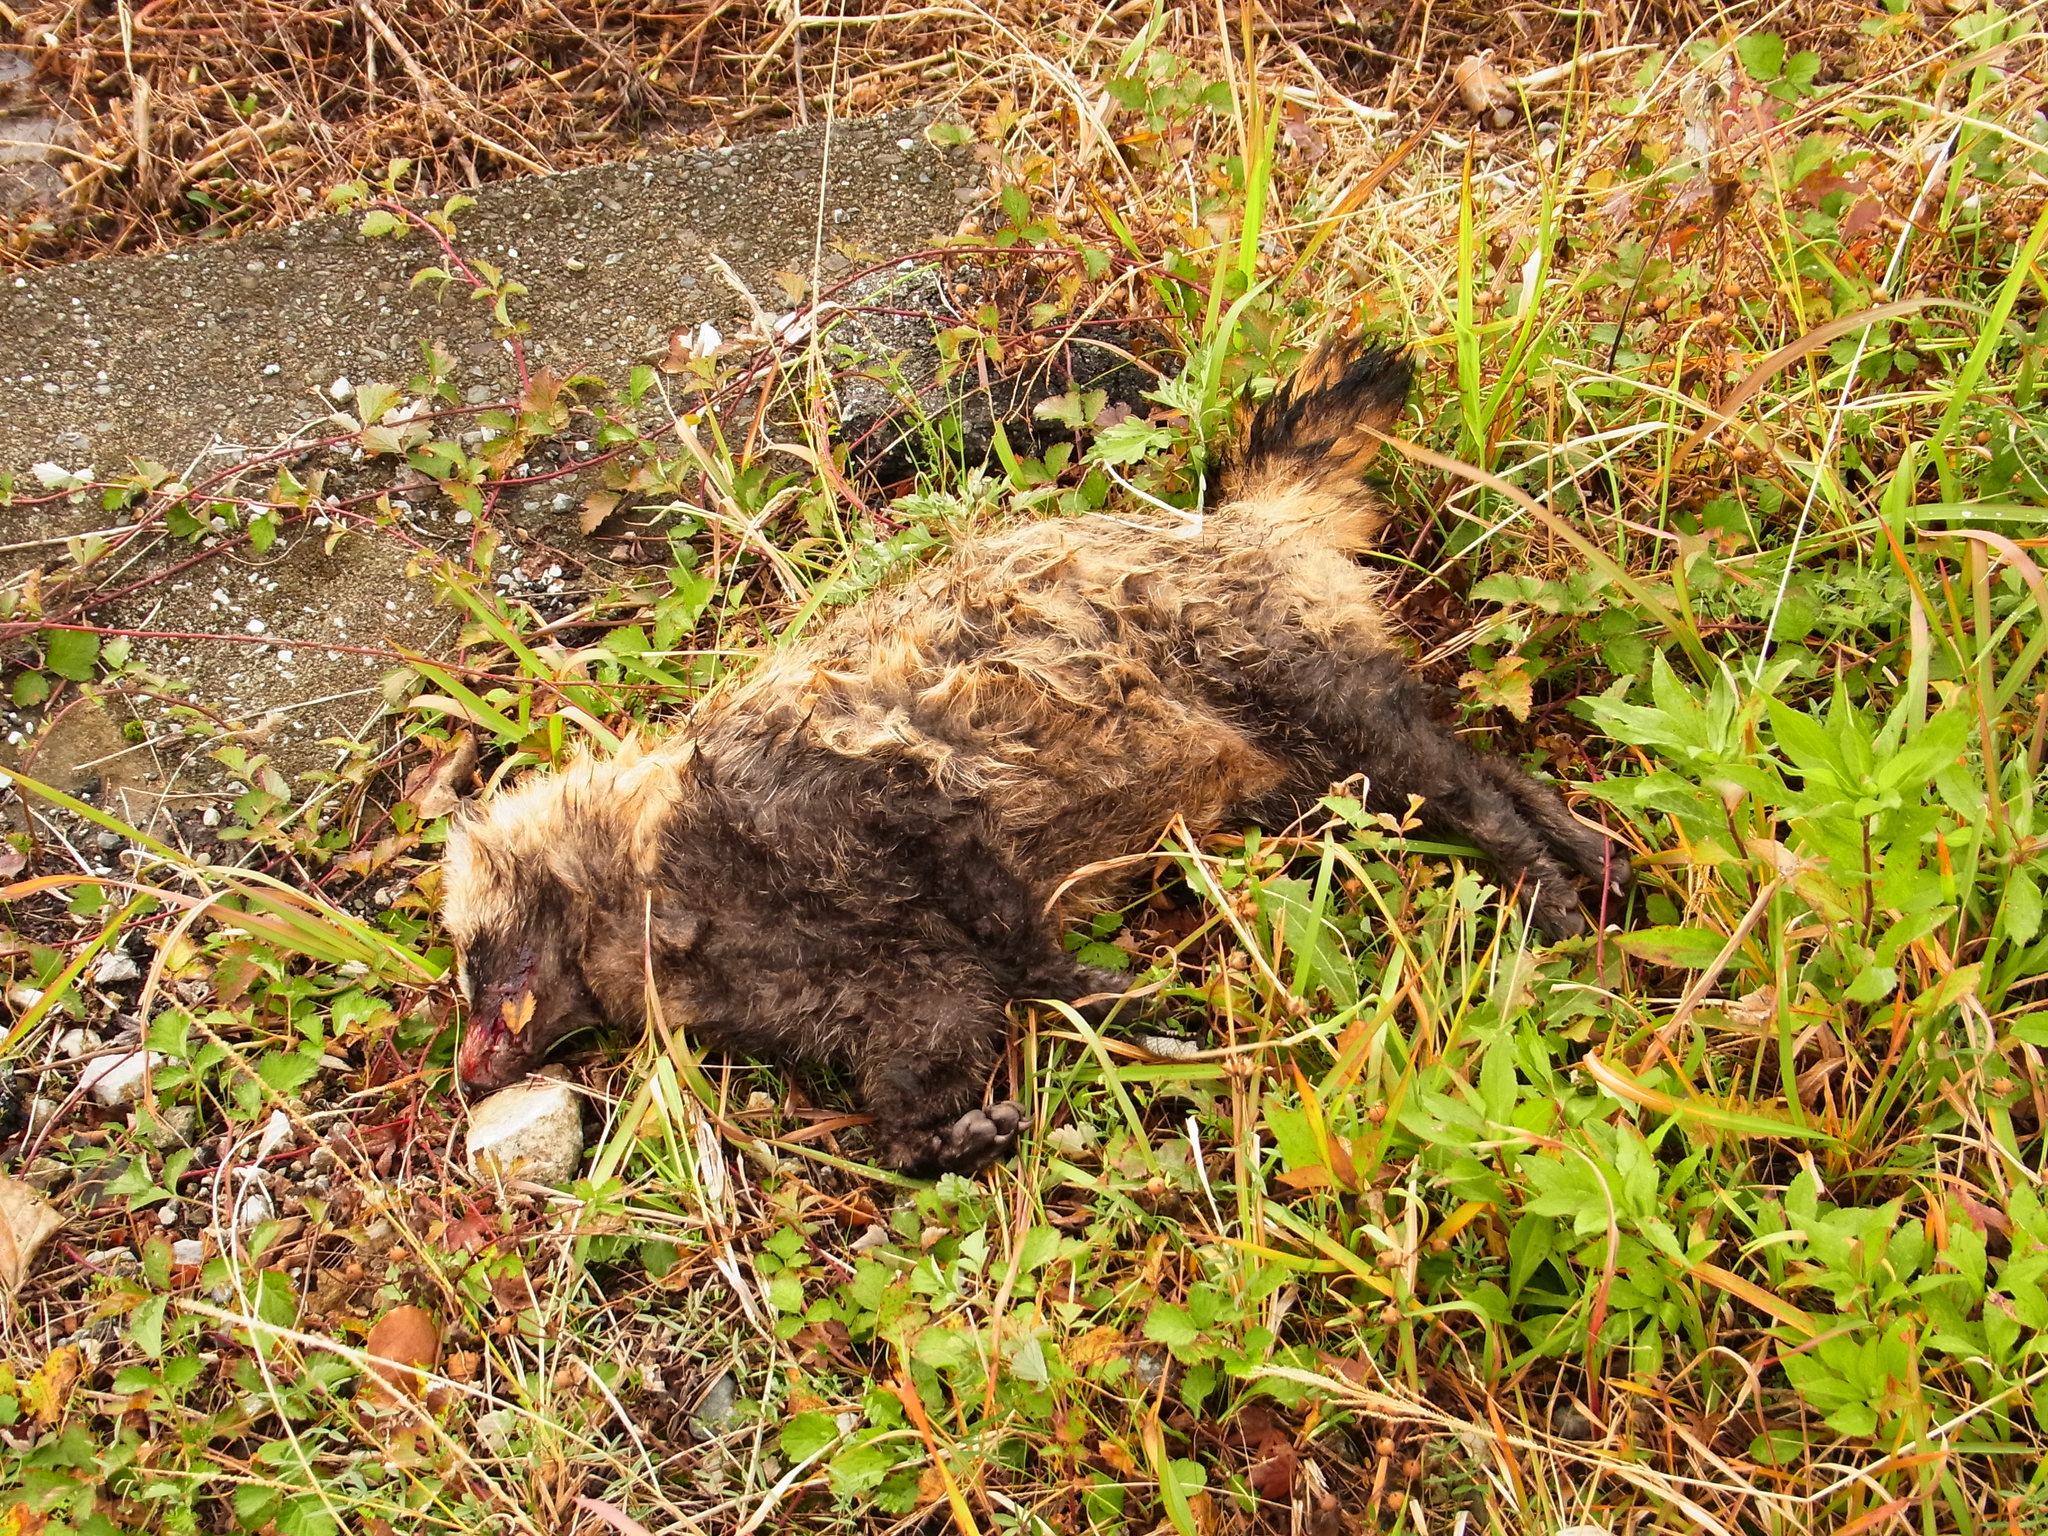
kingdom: Animalia
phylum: Chordata
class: Mammalia
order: Carnivora
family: Canidae
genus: Nyctereutes
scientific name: Nyctereutes
